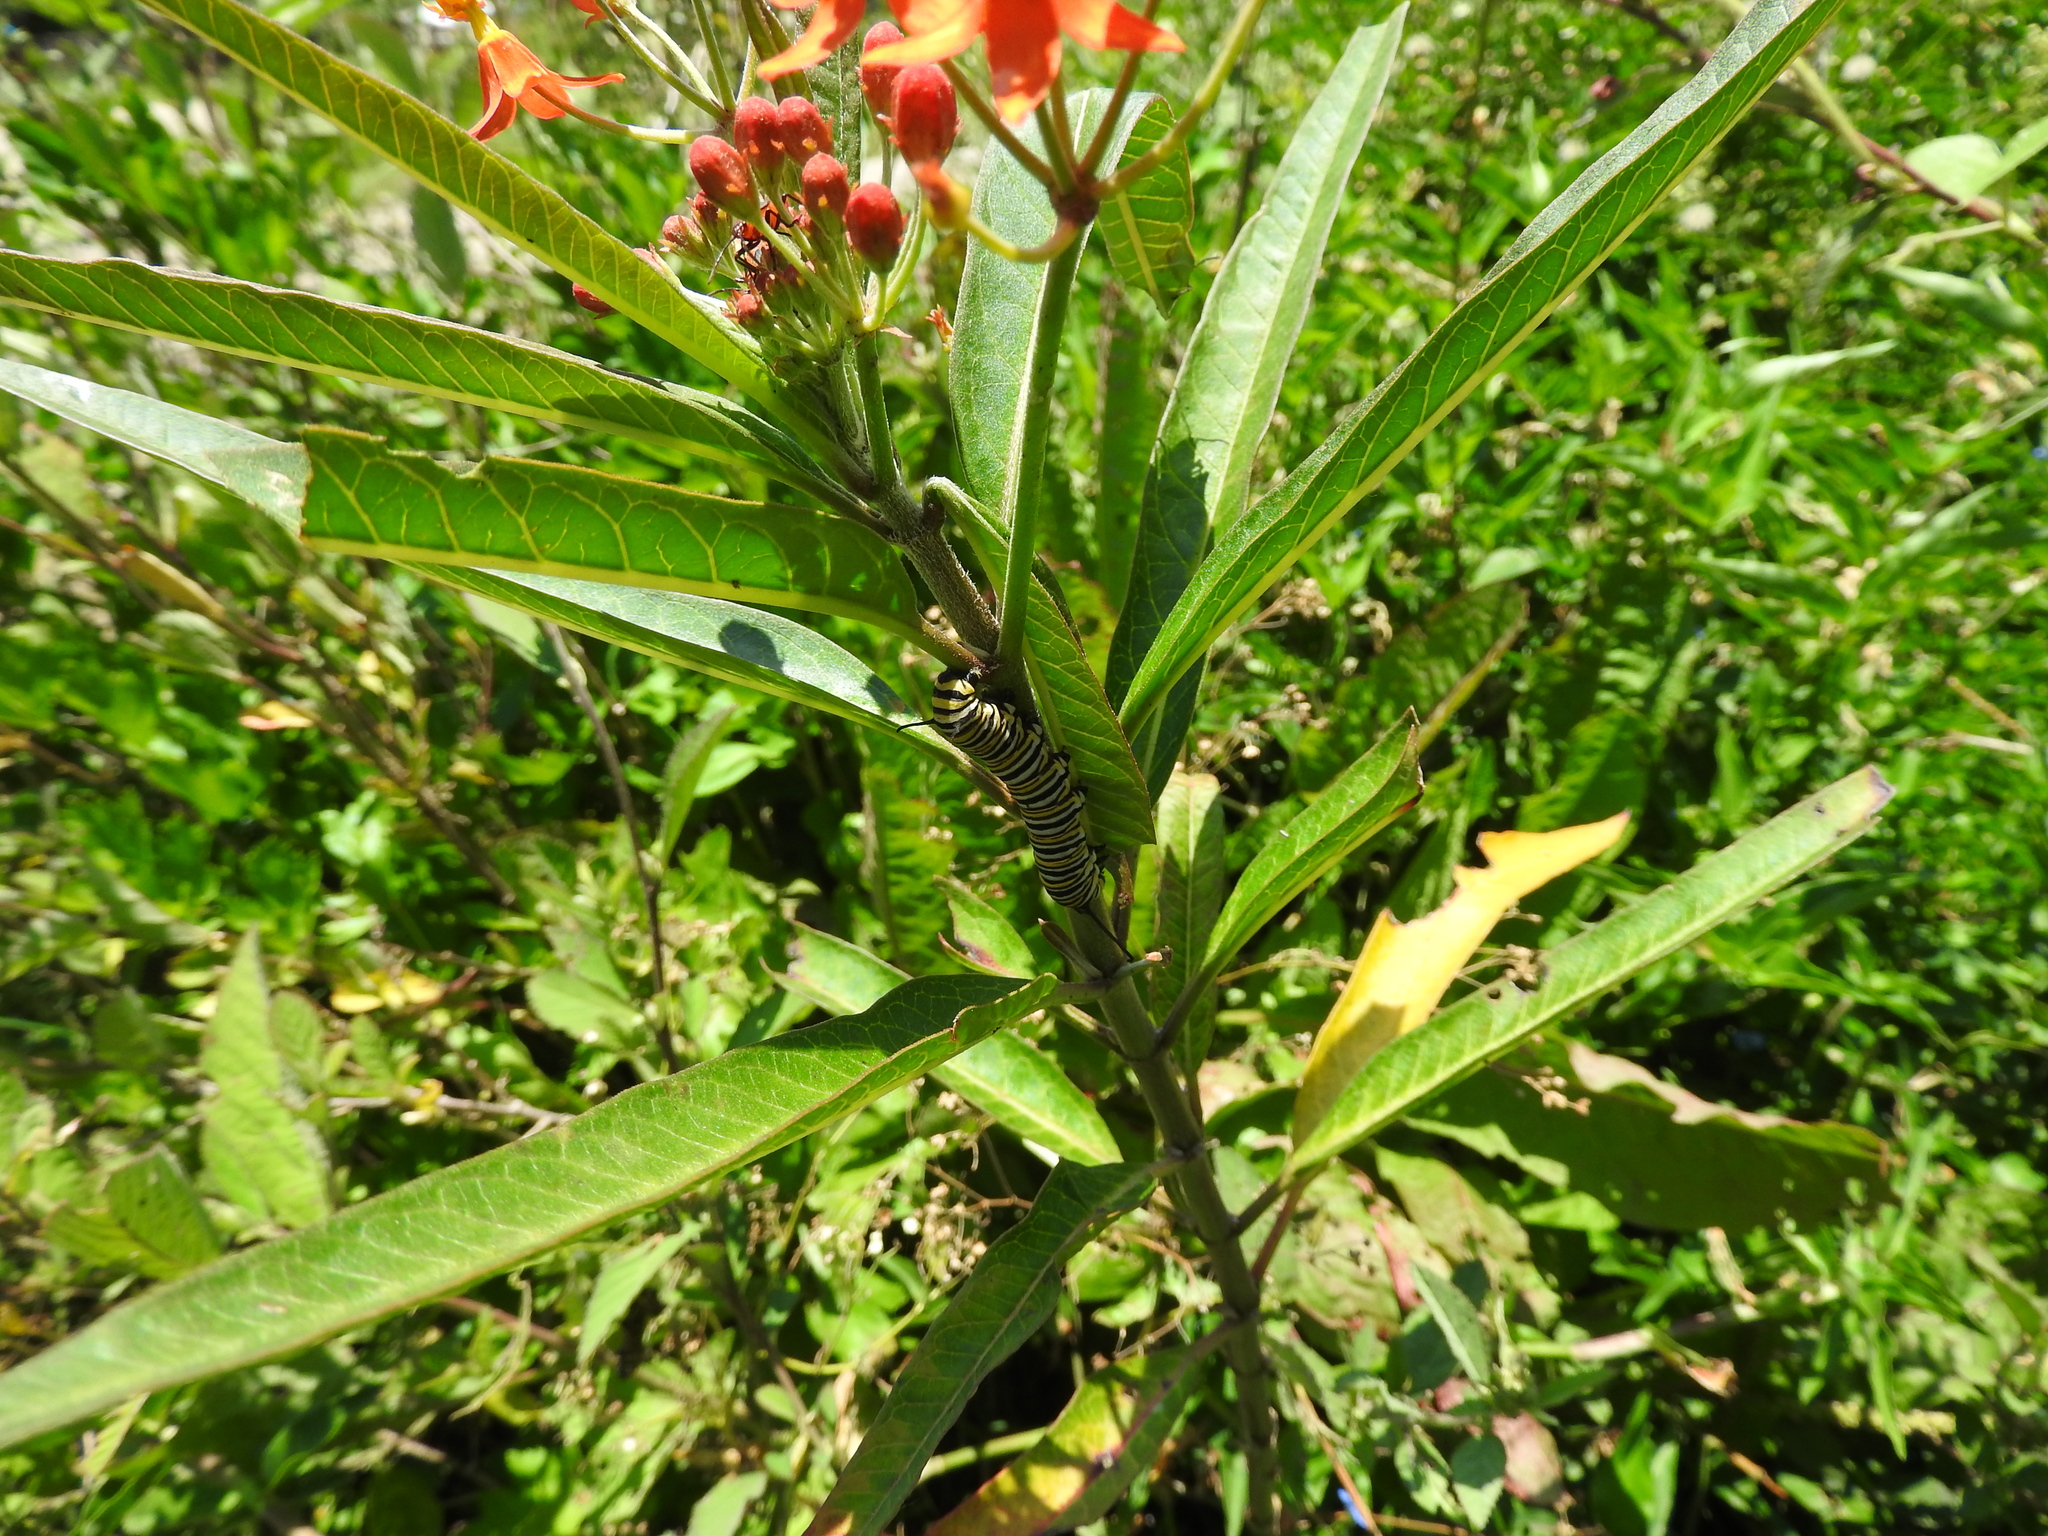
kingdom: Animalia
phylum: Arthropoda
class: Insecta
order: Lepidoptera
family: Nymphalidae
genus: Danaus
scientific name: Danaus plexippus
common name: Monarch
